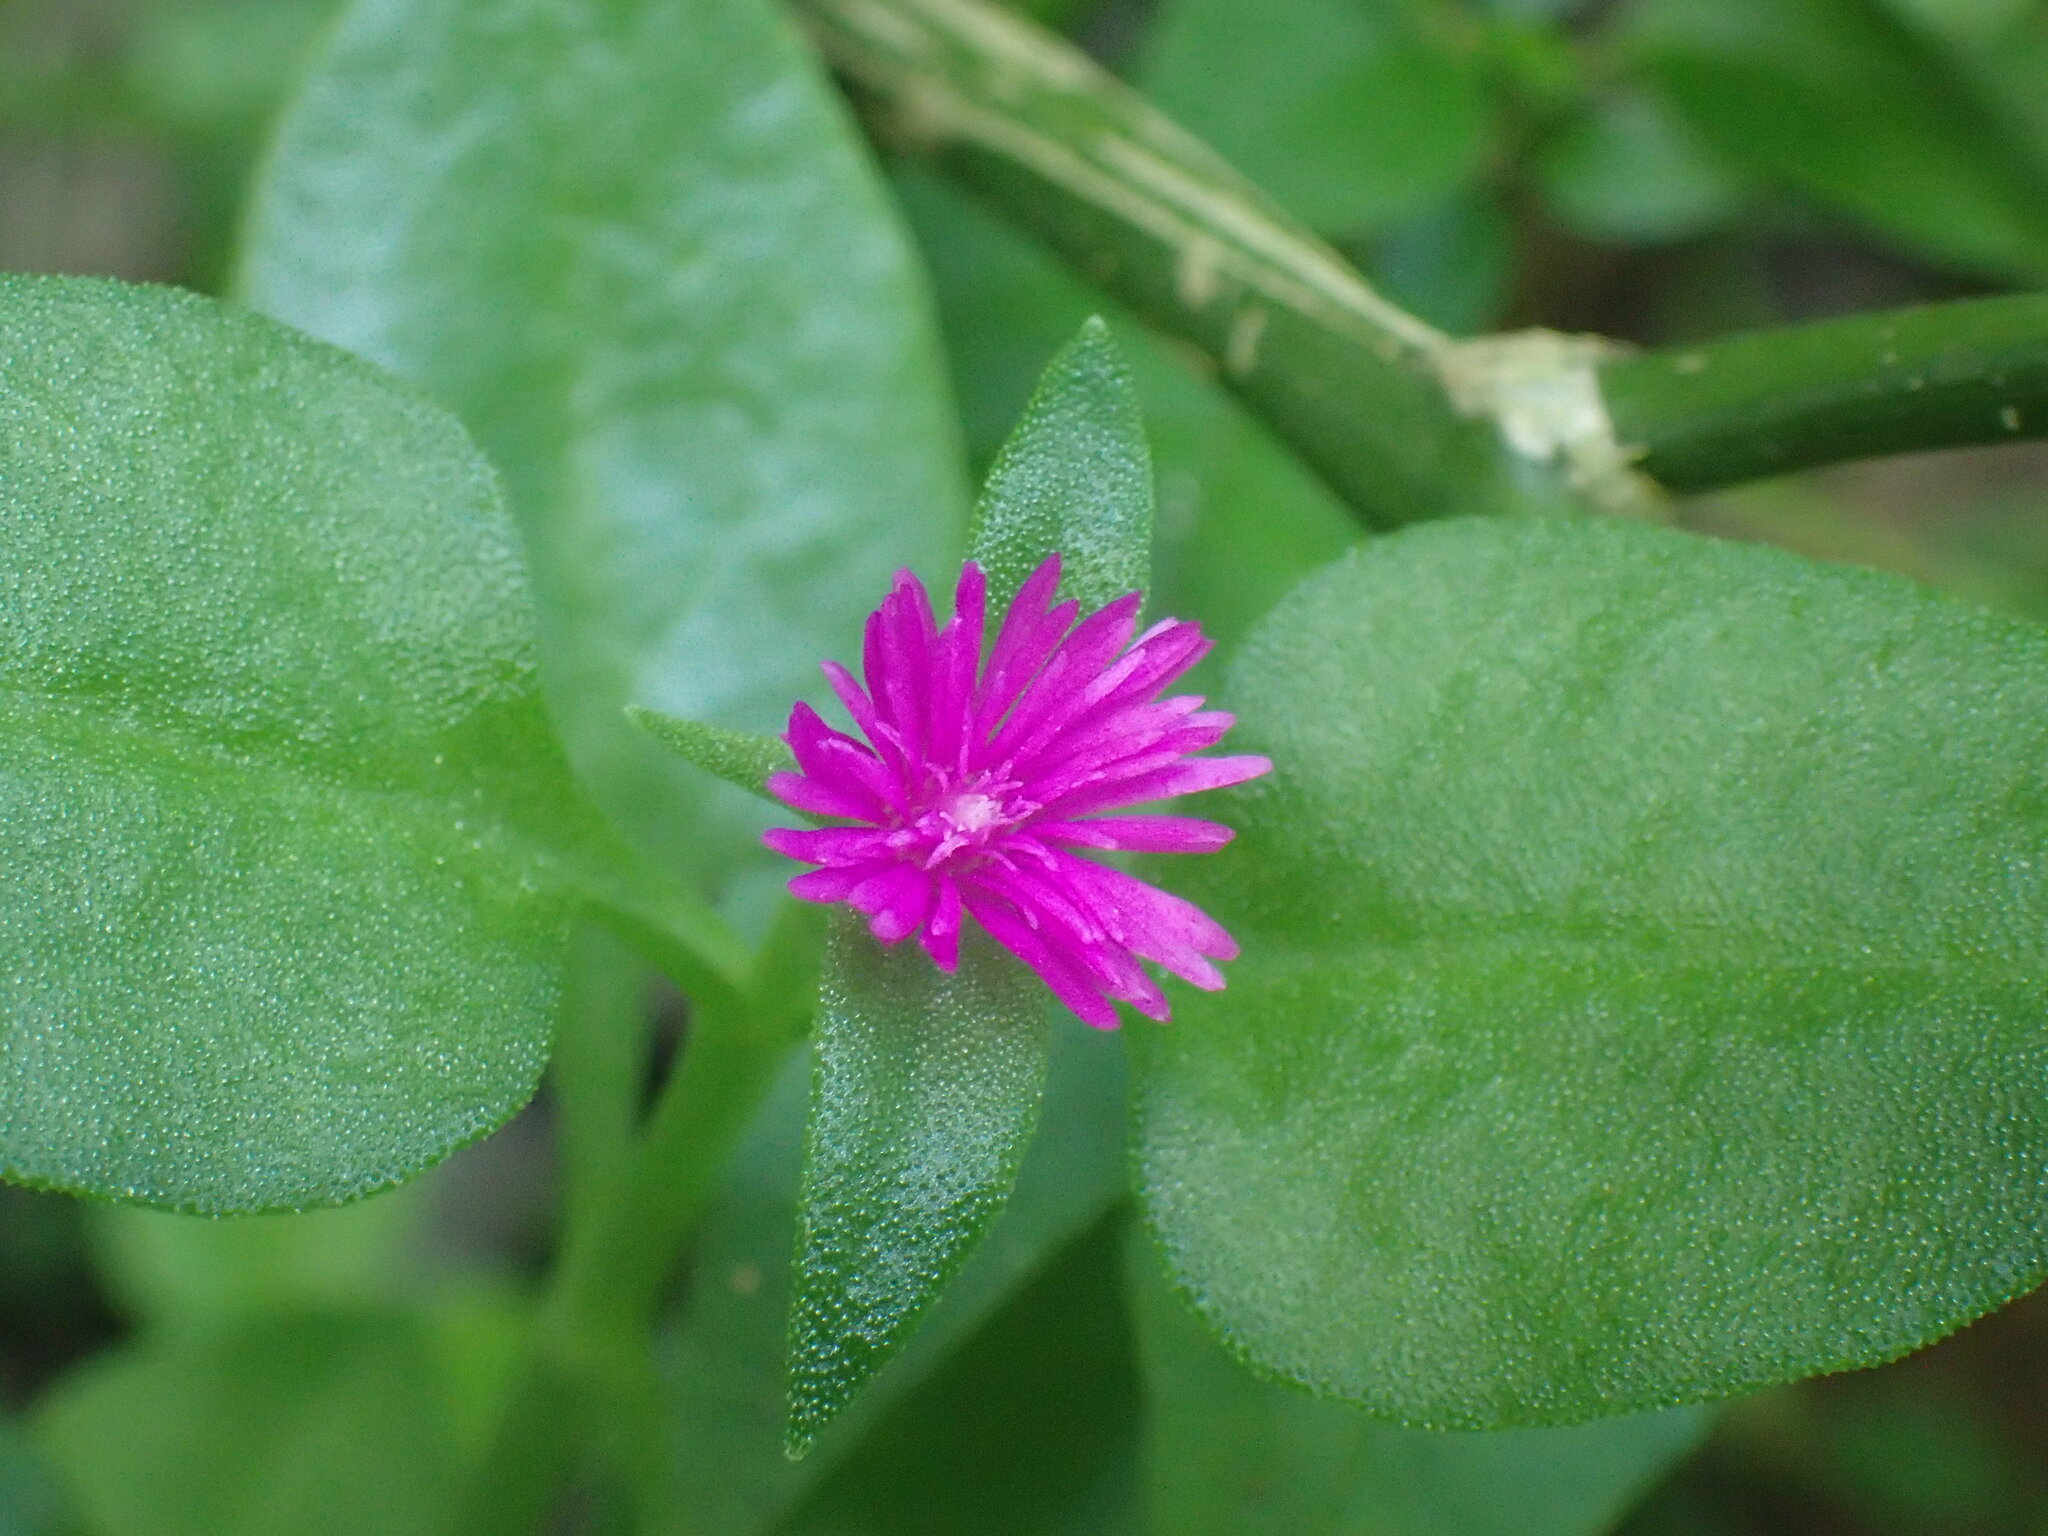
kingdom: Plantae
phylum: Tracheophyta
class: Magnoliopsida
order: Caryophyllales
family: Aizoaceae
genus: Mesembryanthemum
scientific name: Mesembryanthemum cordifolium
